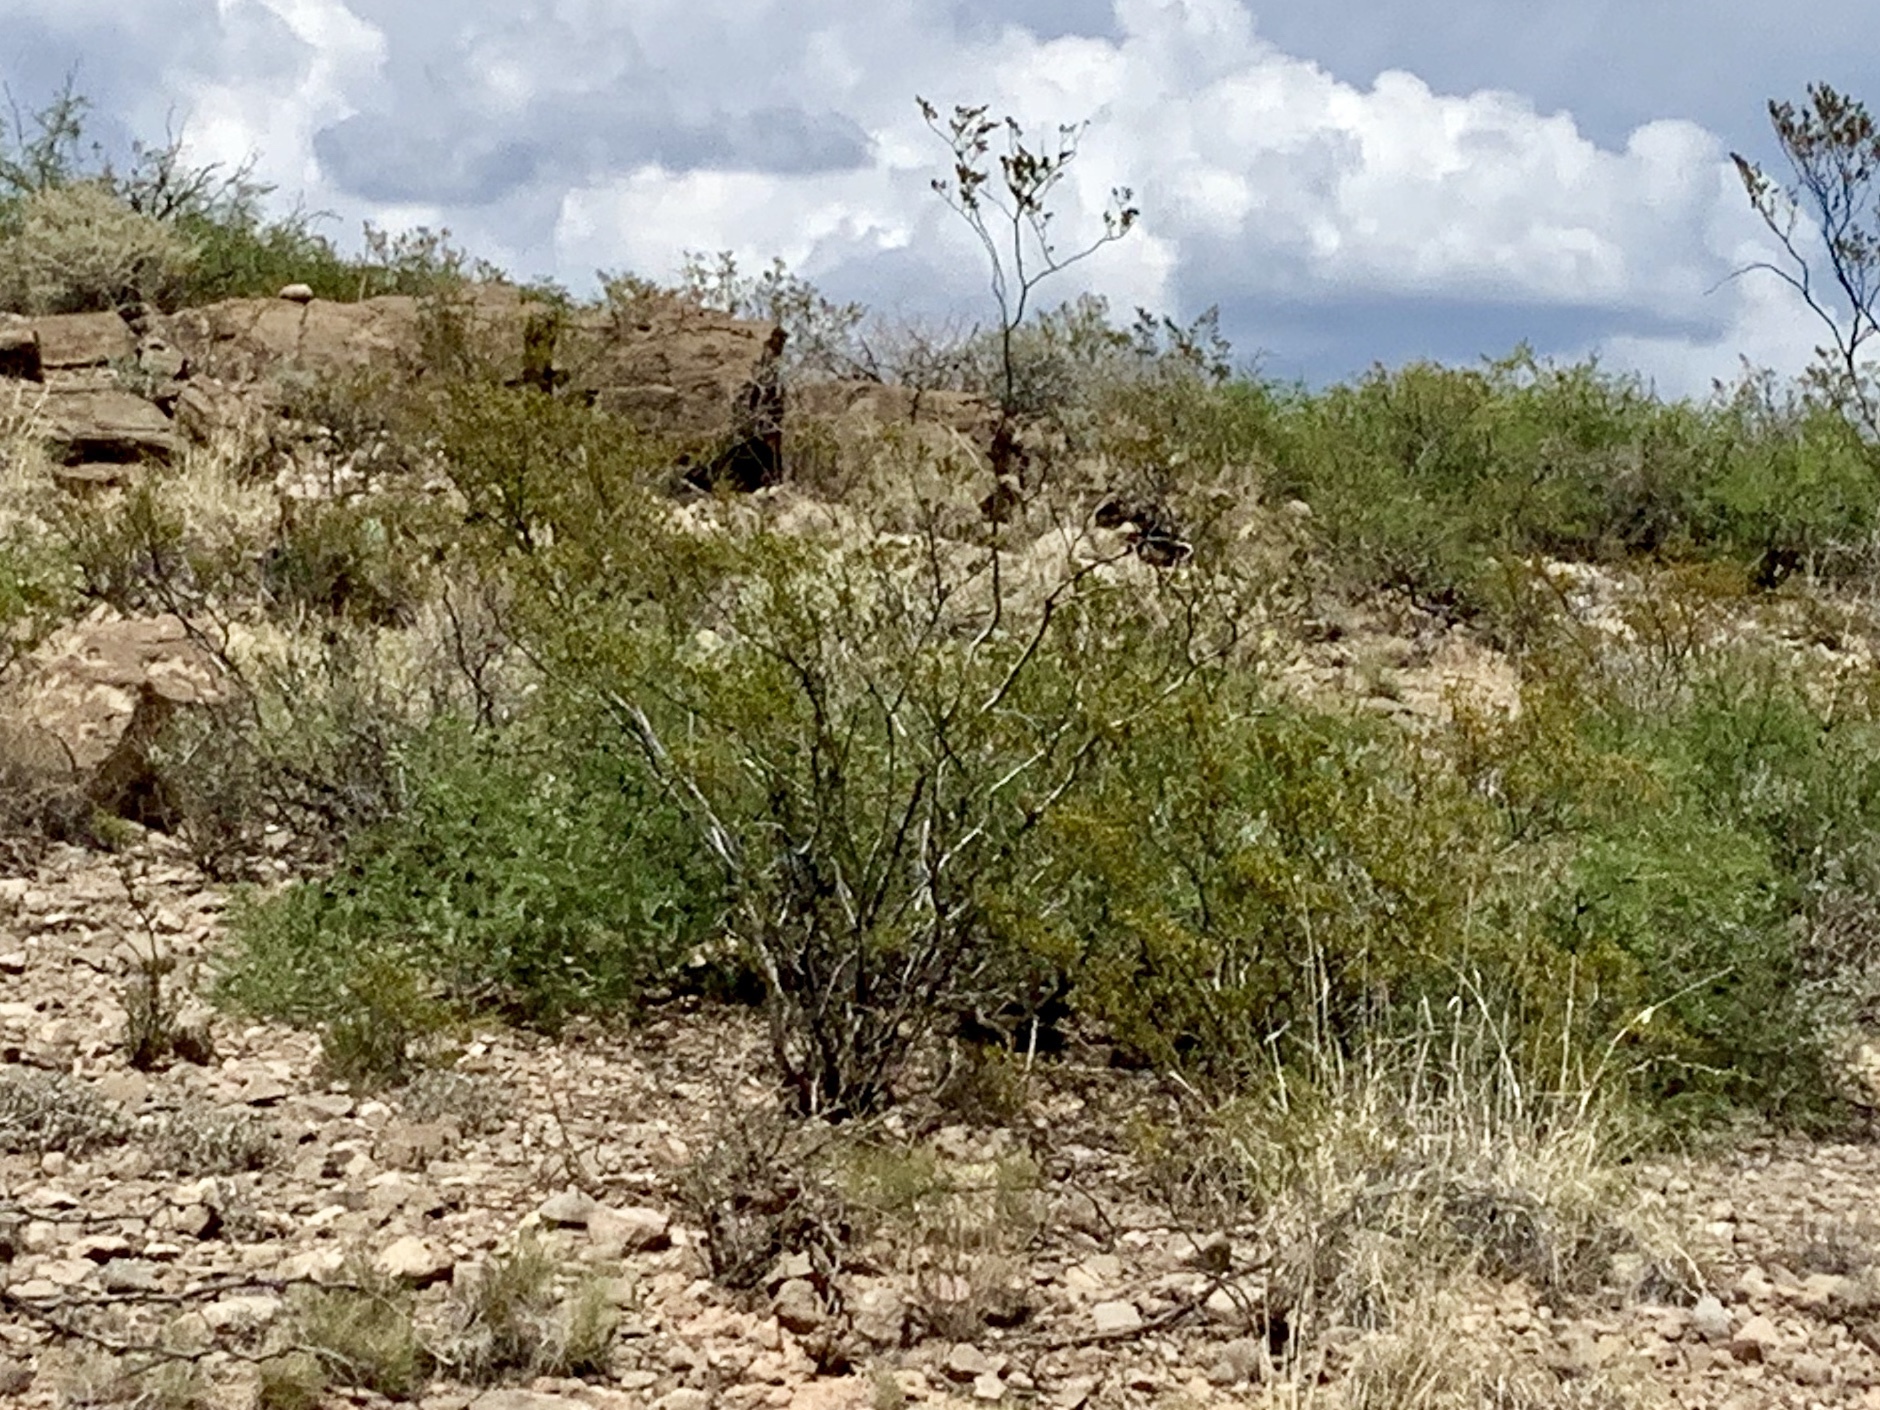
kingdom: Plantae
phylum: Tracheophyta
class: Magnoliopsida
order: Zygophyllales
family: Zygophyllaceae
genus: Larrea
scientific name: Larrea tridentata
